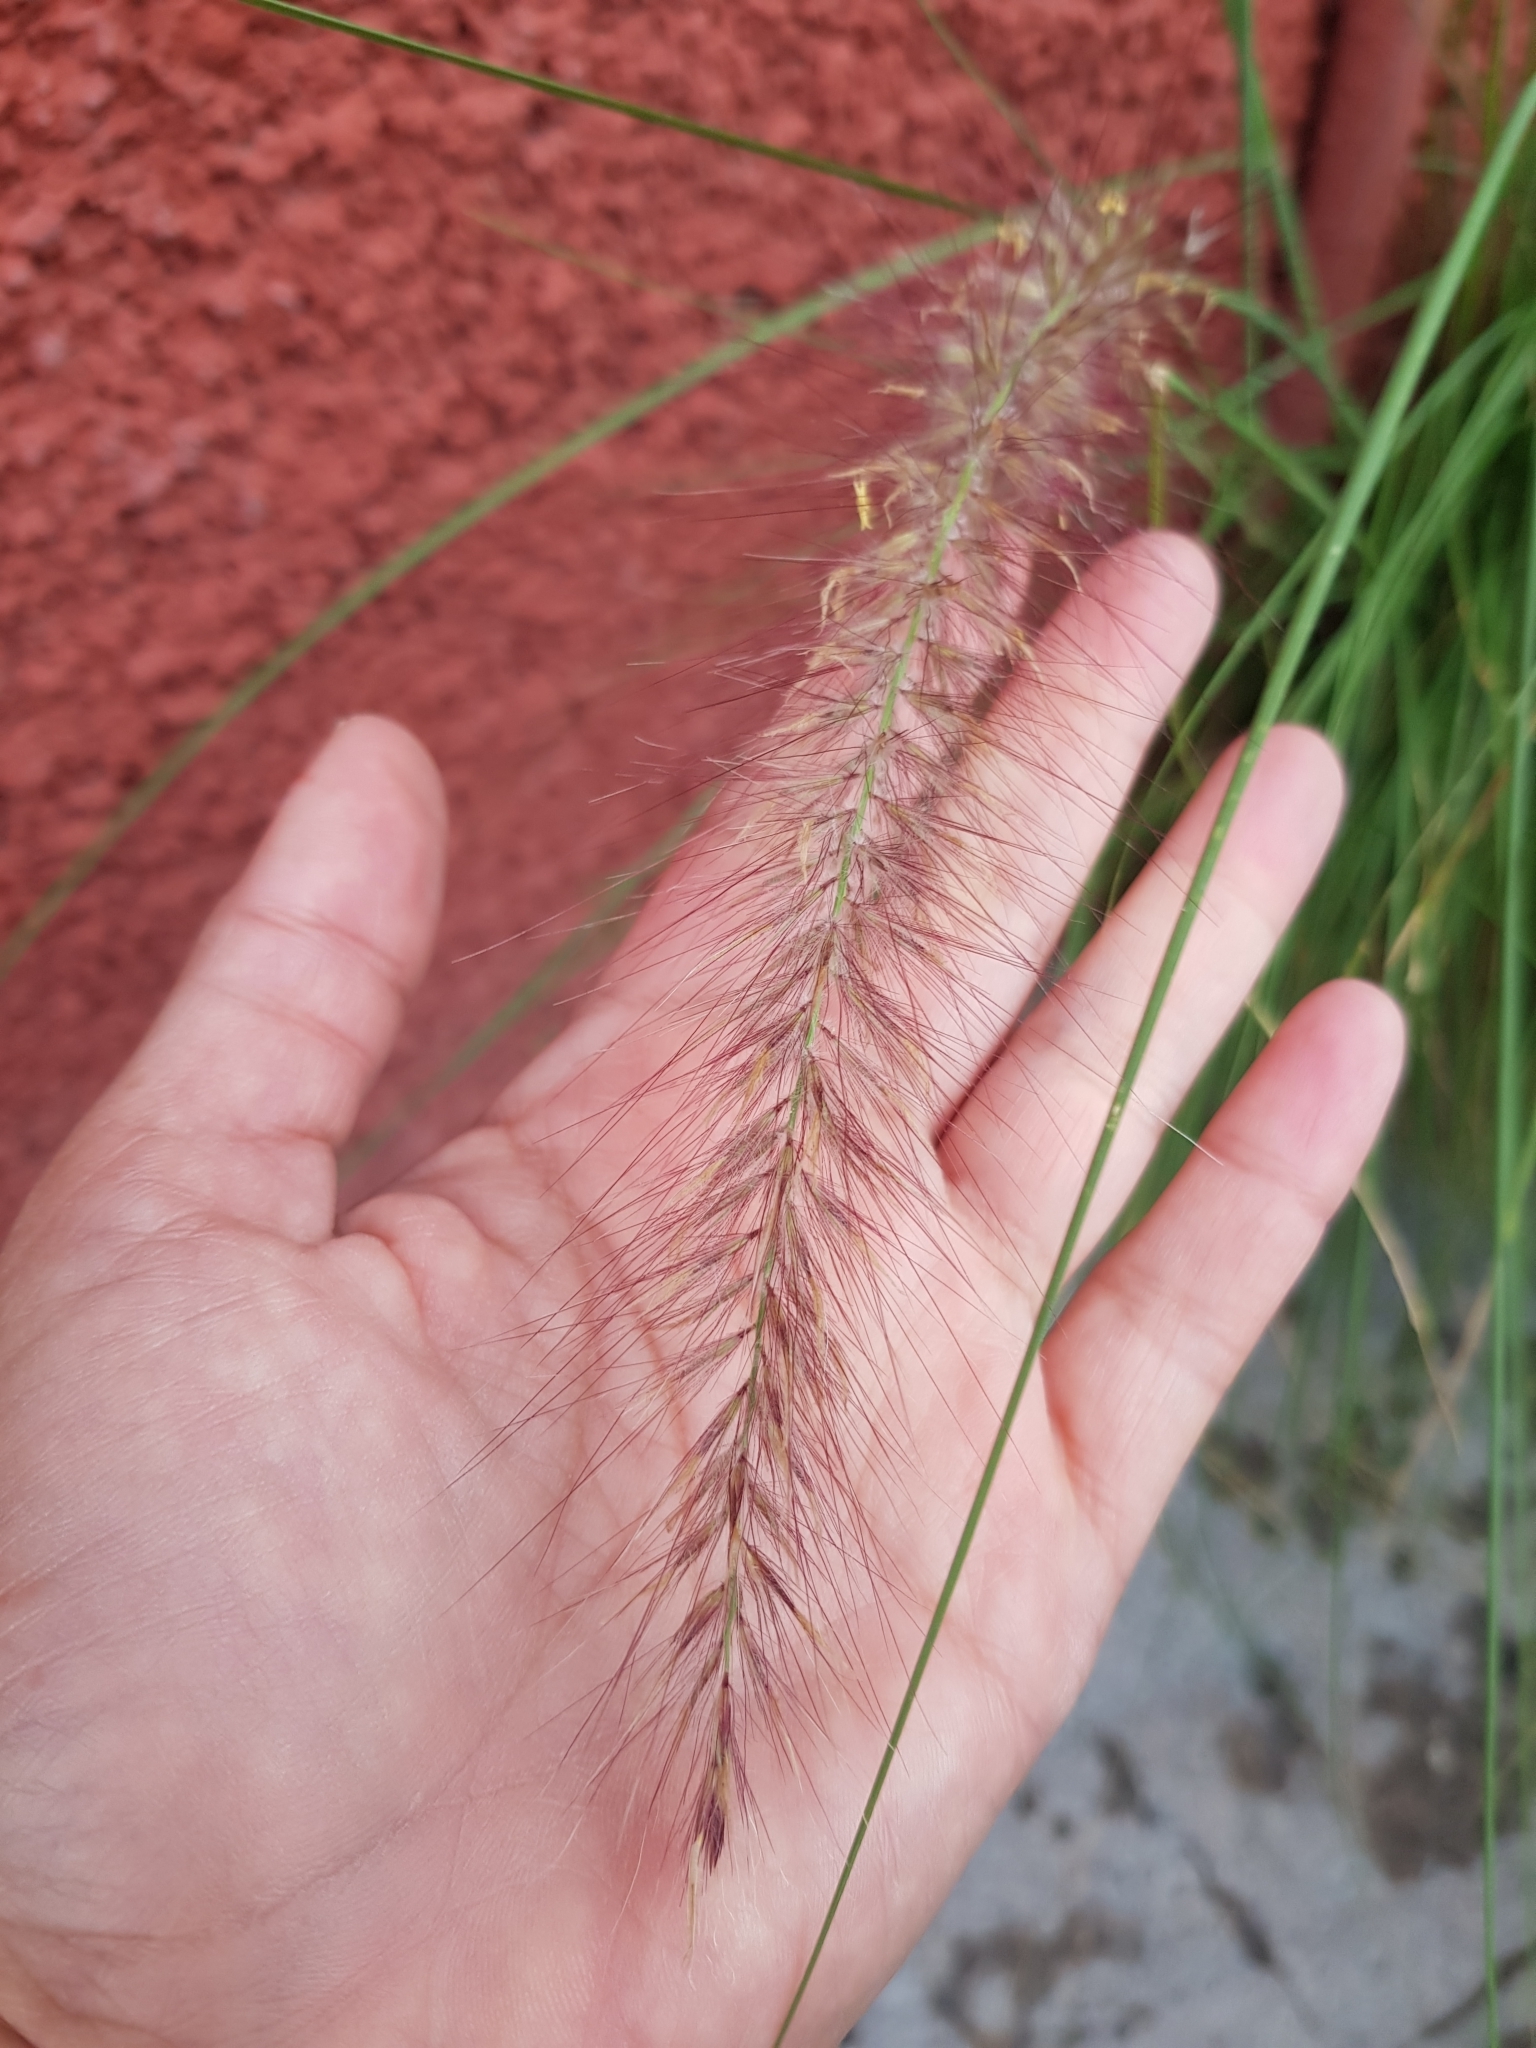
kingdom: Plantae
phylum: Tracheophyta
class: Liliopsida
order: Poales
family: Poaceae
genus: Cenchrus
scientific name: Cenchrus setaceus
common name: Crimson fountaingrass
